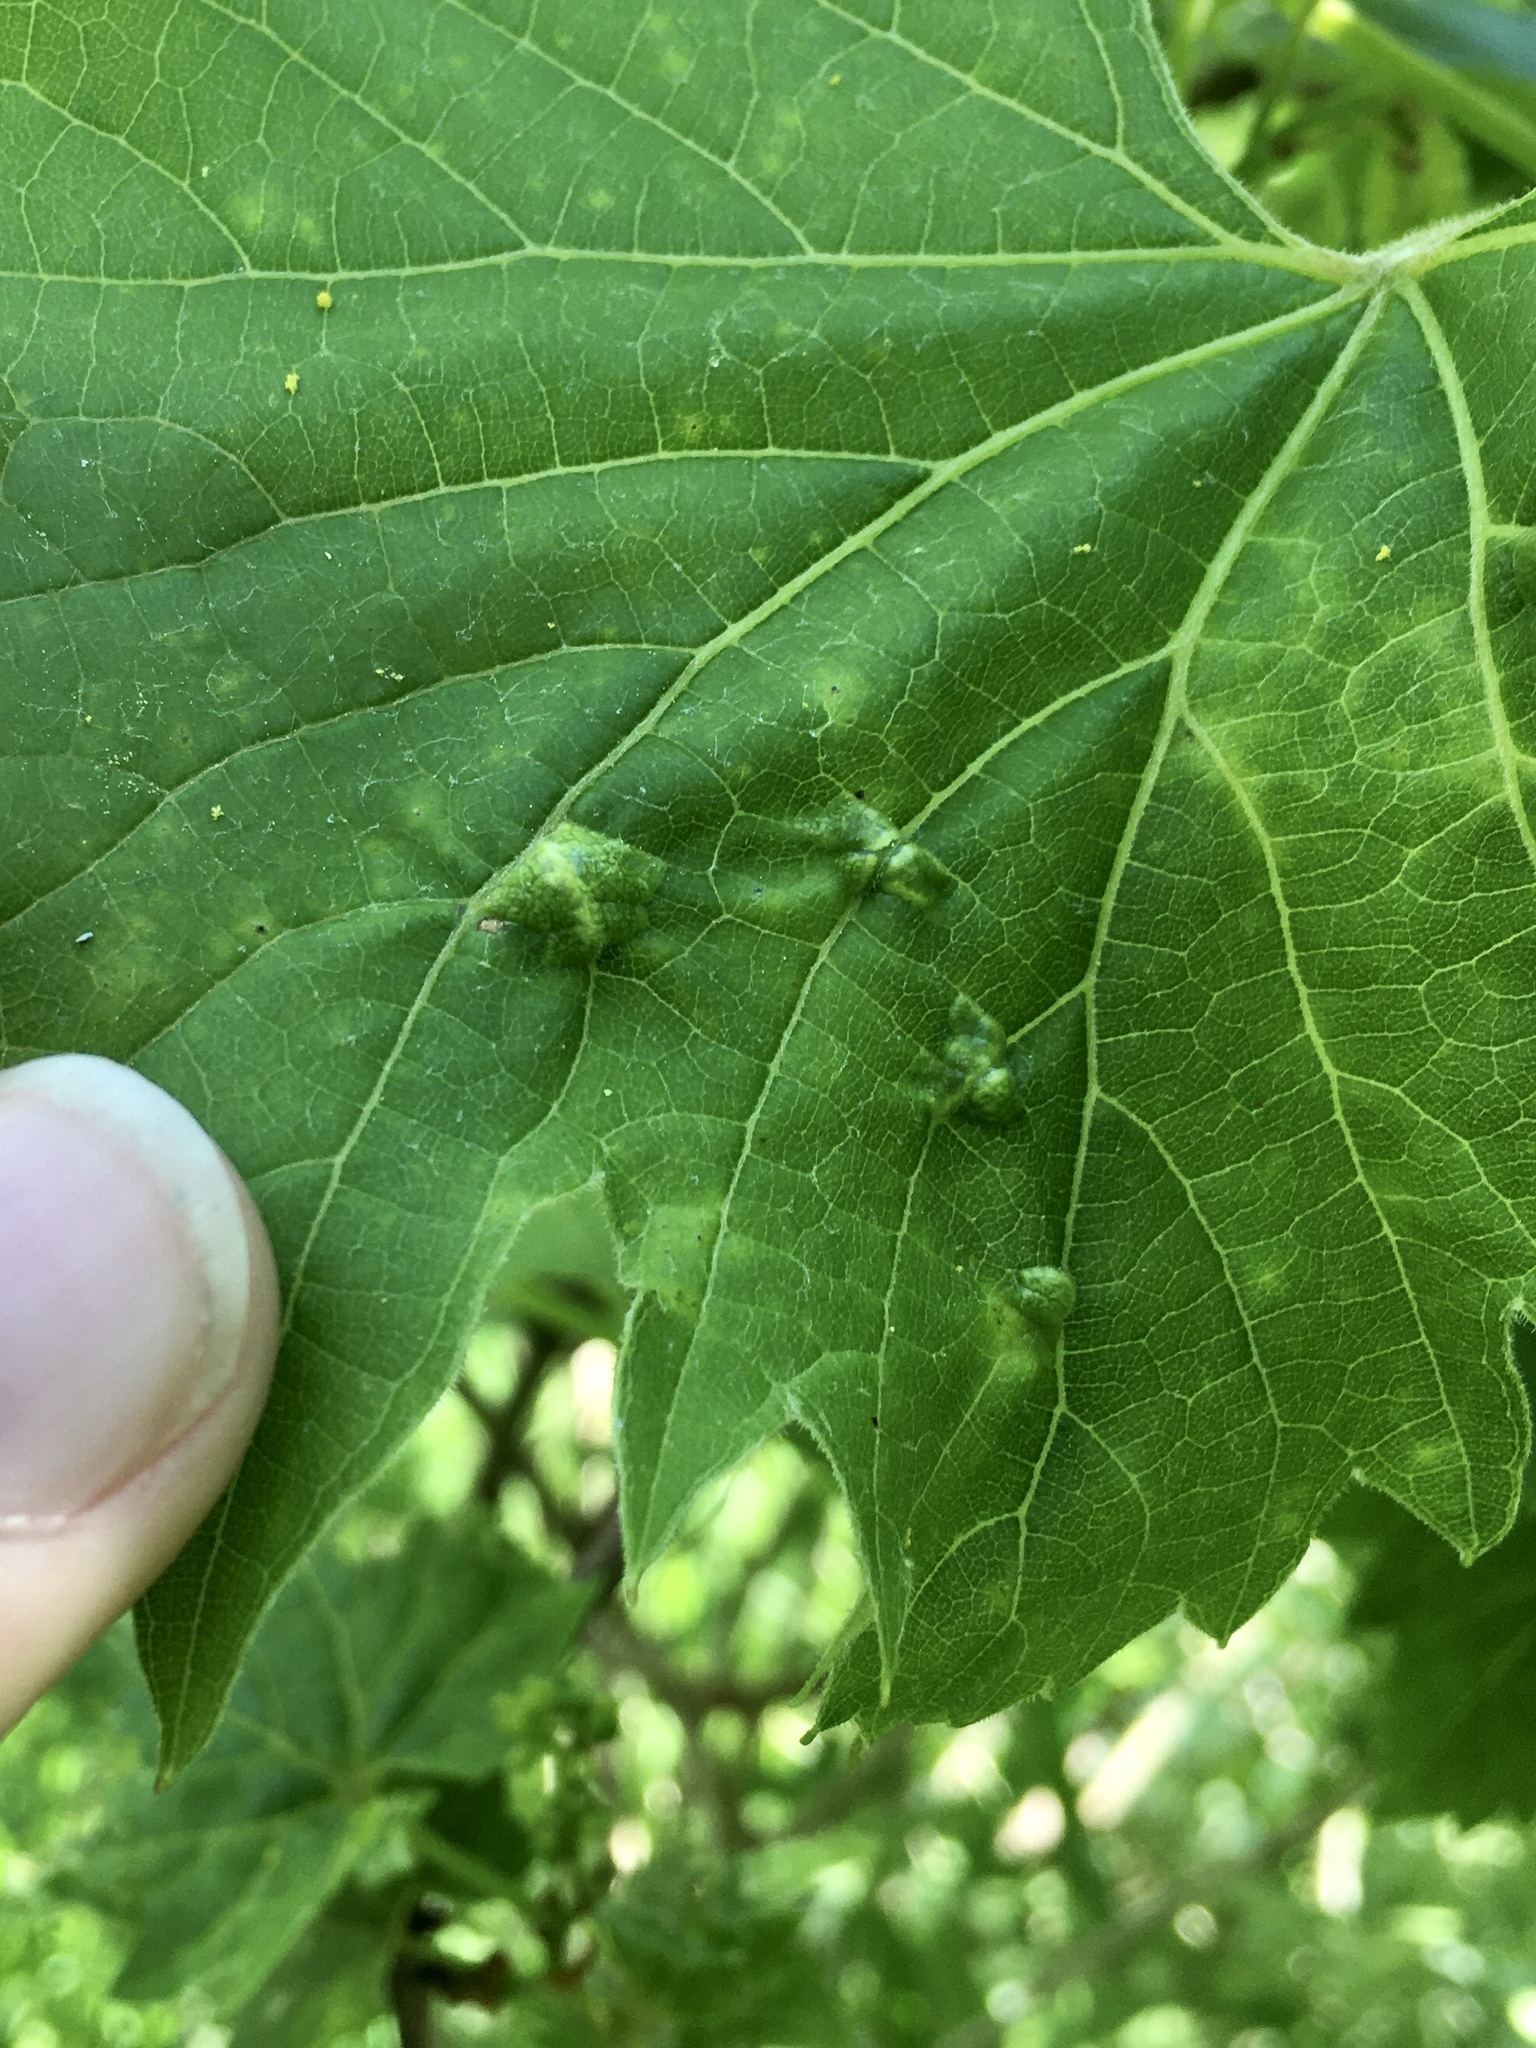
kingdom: Animalia
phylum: Arthropoda
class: Insecta
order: Lepidoptera
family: Heliozelidae
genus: Heliozela
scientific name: Heliozela aesella
